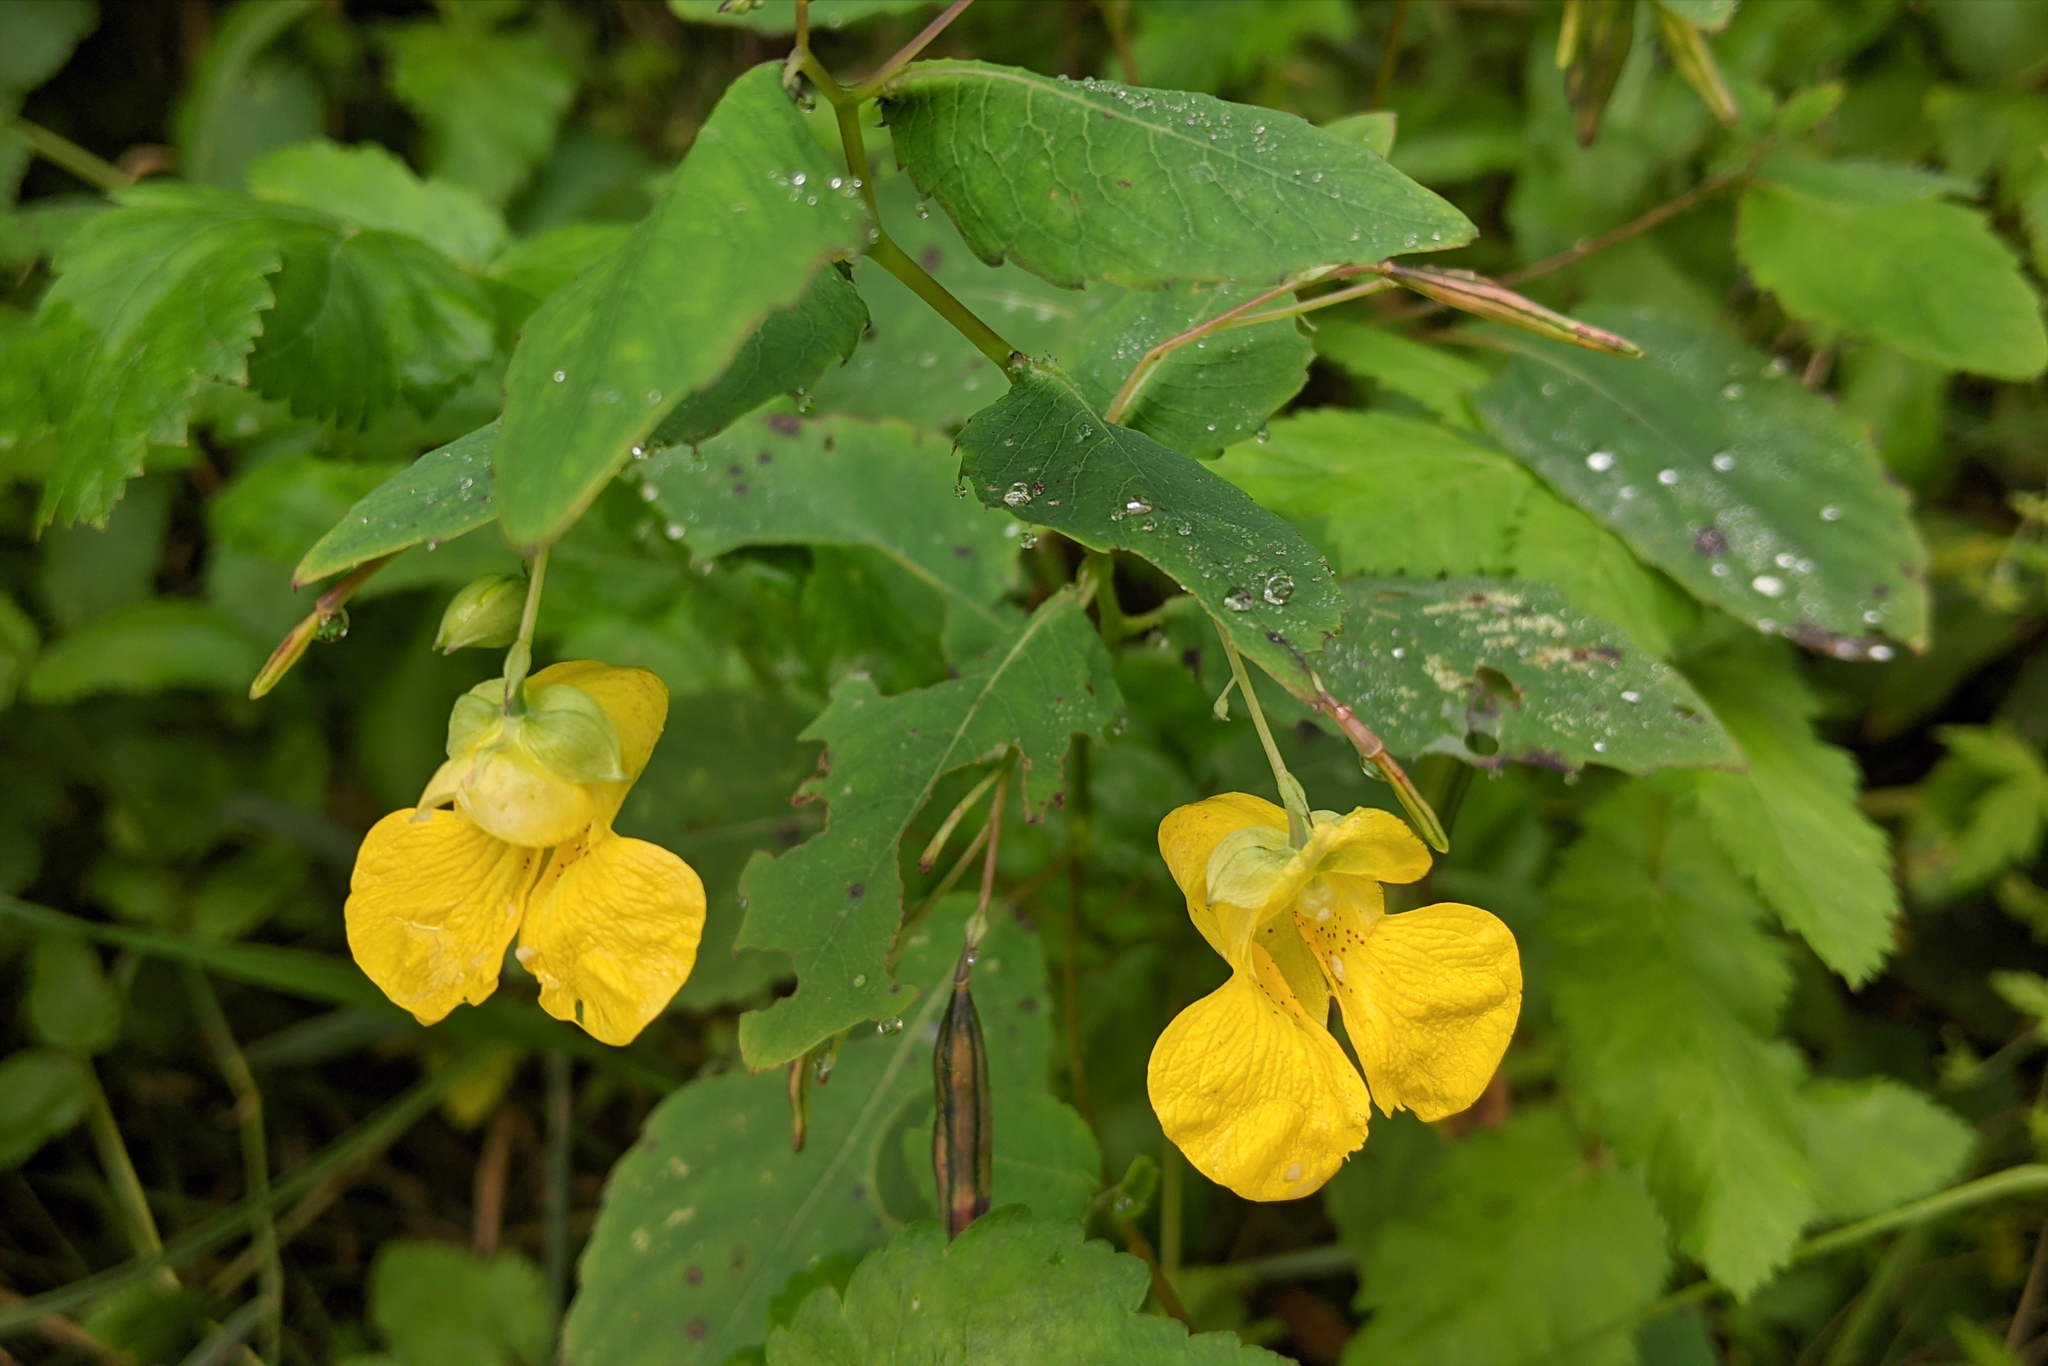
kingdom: Plantae
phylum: Tracheophyta
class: Magnoliopsida
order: Ericales
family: Balsaminaceae
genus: Impatiens
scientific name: Impatiens pallida
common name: Pale snapweed
